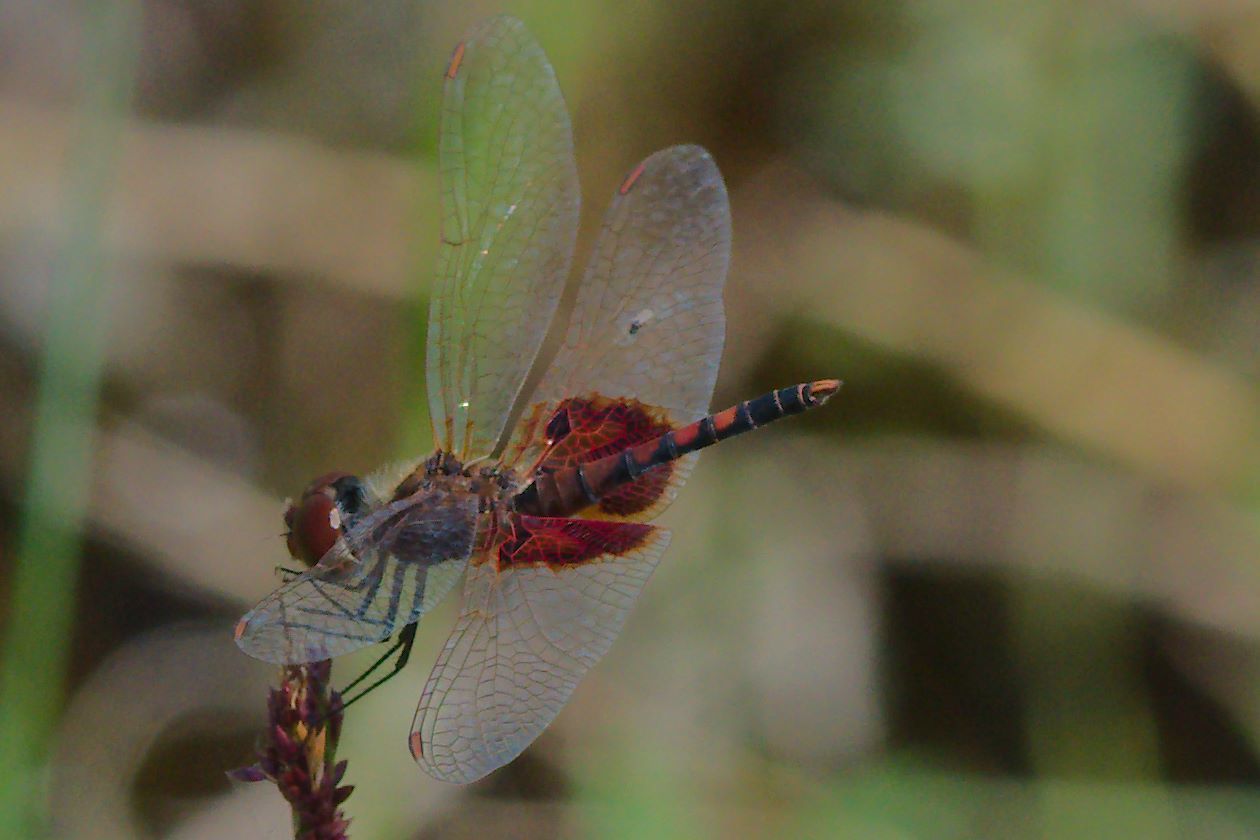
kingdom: Animalia
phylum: Arthropoda
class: Insecta
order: Odonata
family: Libellulidae
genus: Celithemis
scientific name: Celithemis amanda
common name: Amanda's pennant
